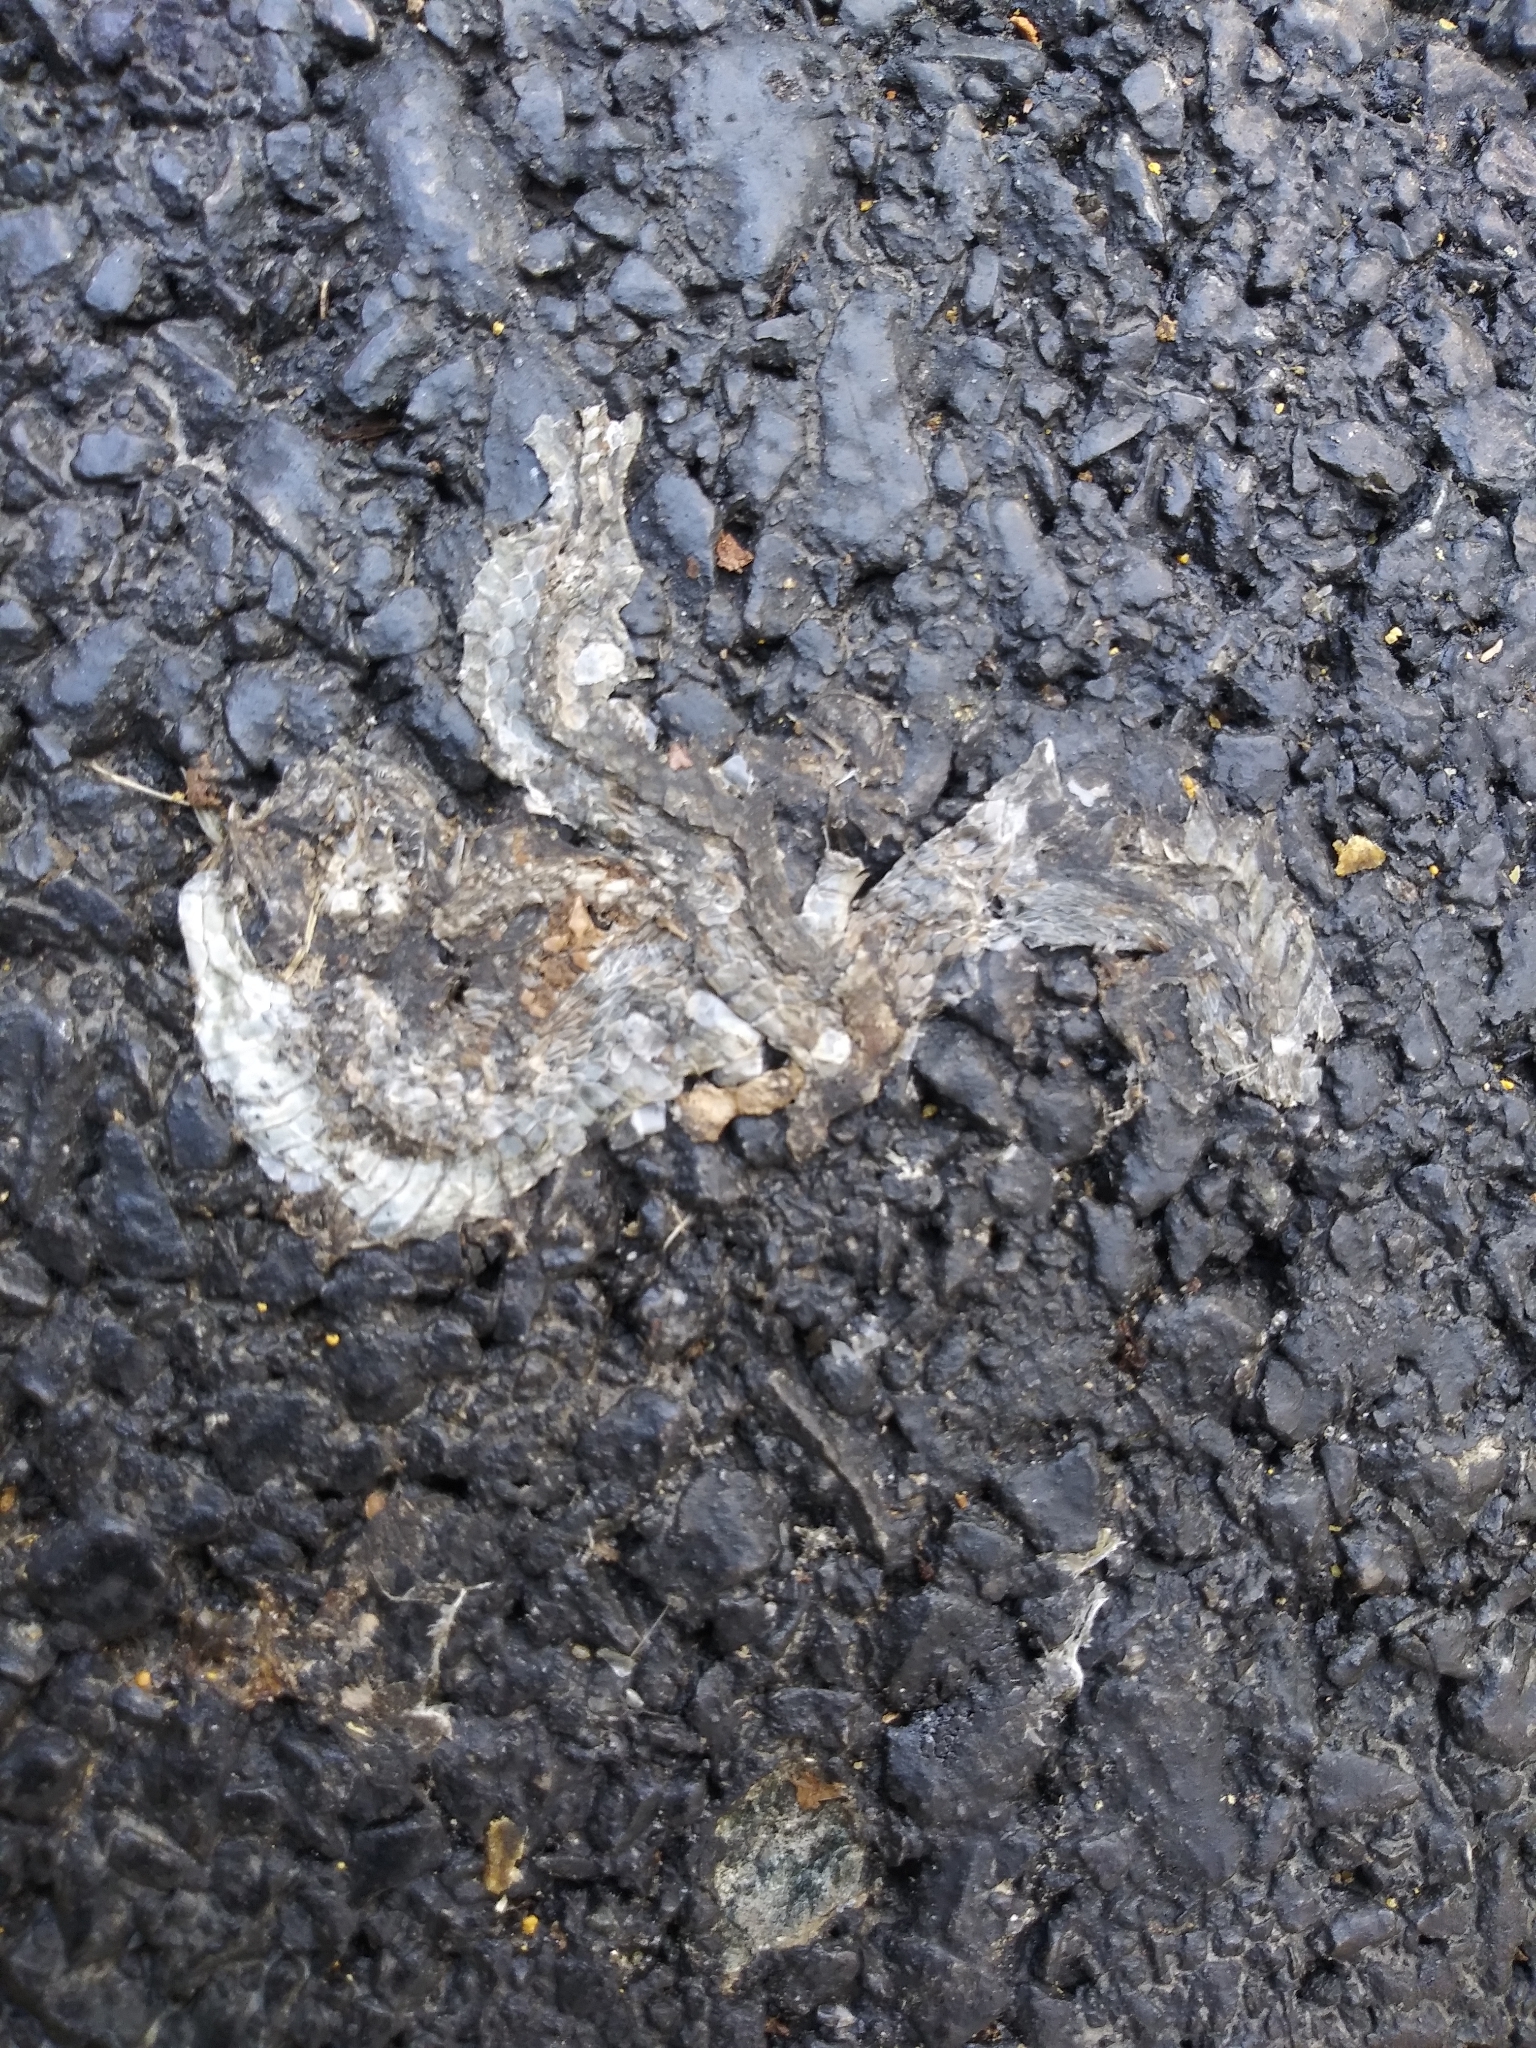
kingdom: Animalia
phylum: Chordata
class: Squamata
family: Colubridae
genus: Storeria
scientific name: Storeria dekayi
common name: (dekay’s) brown snake
